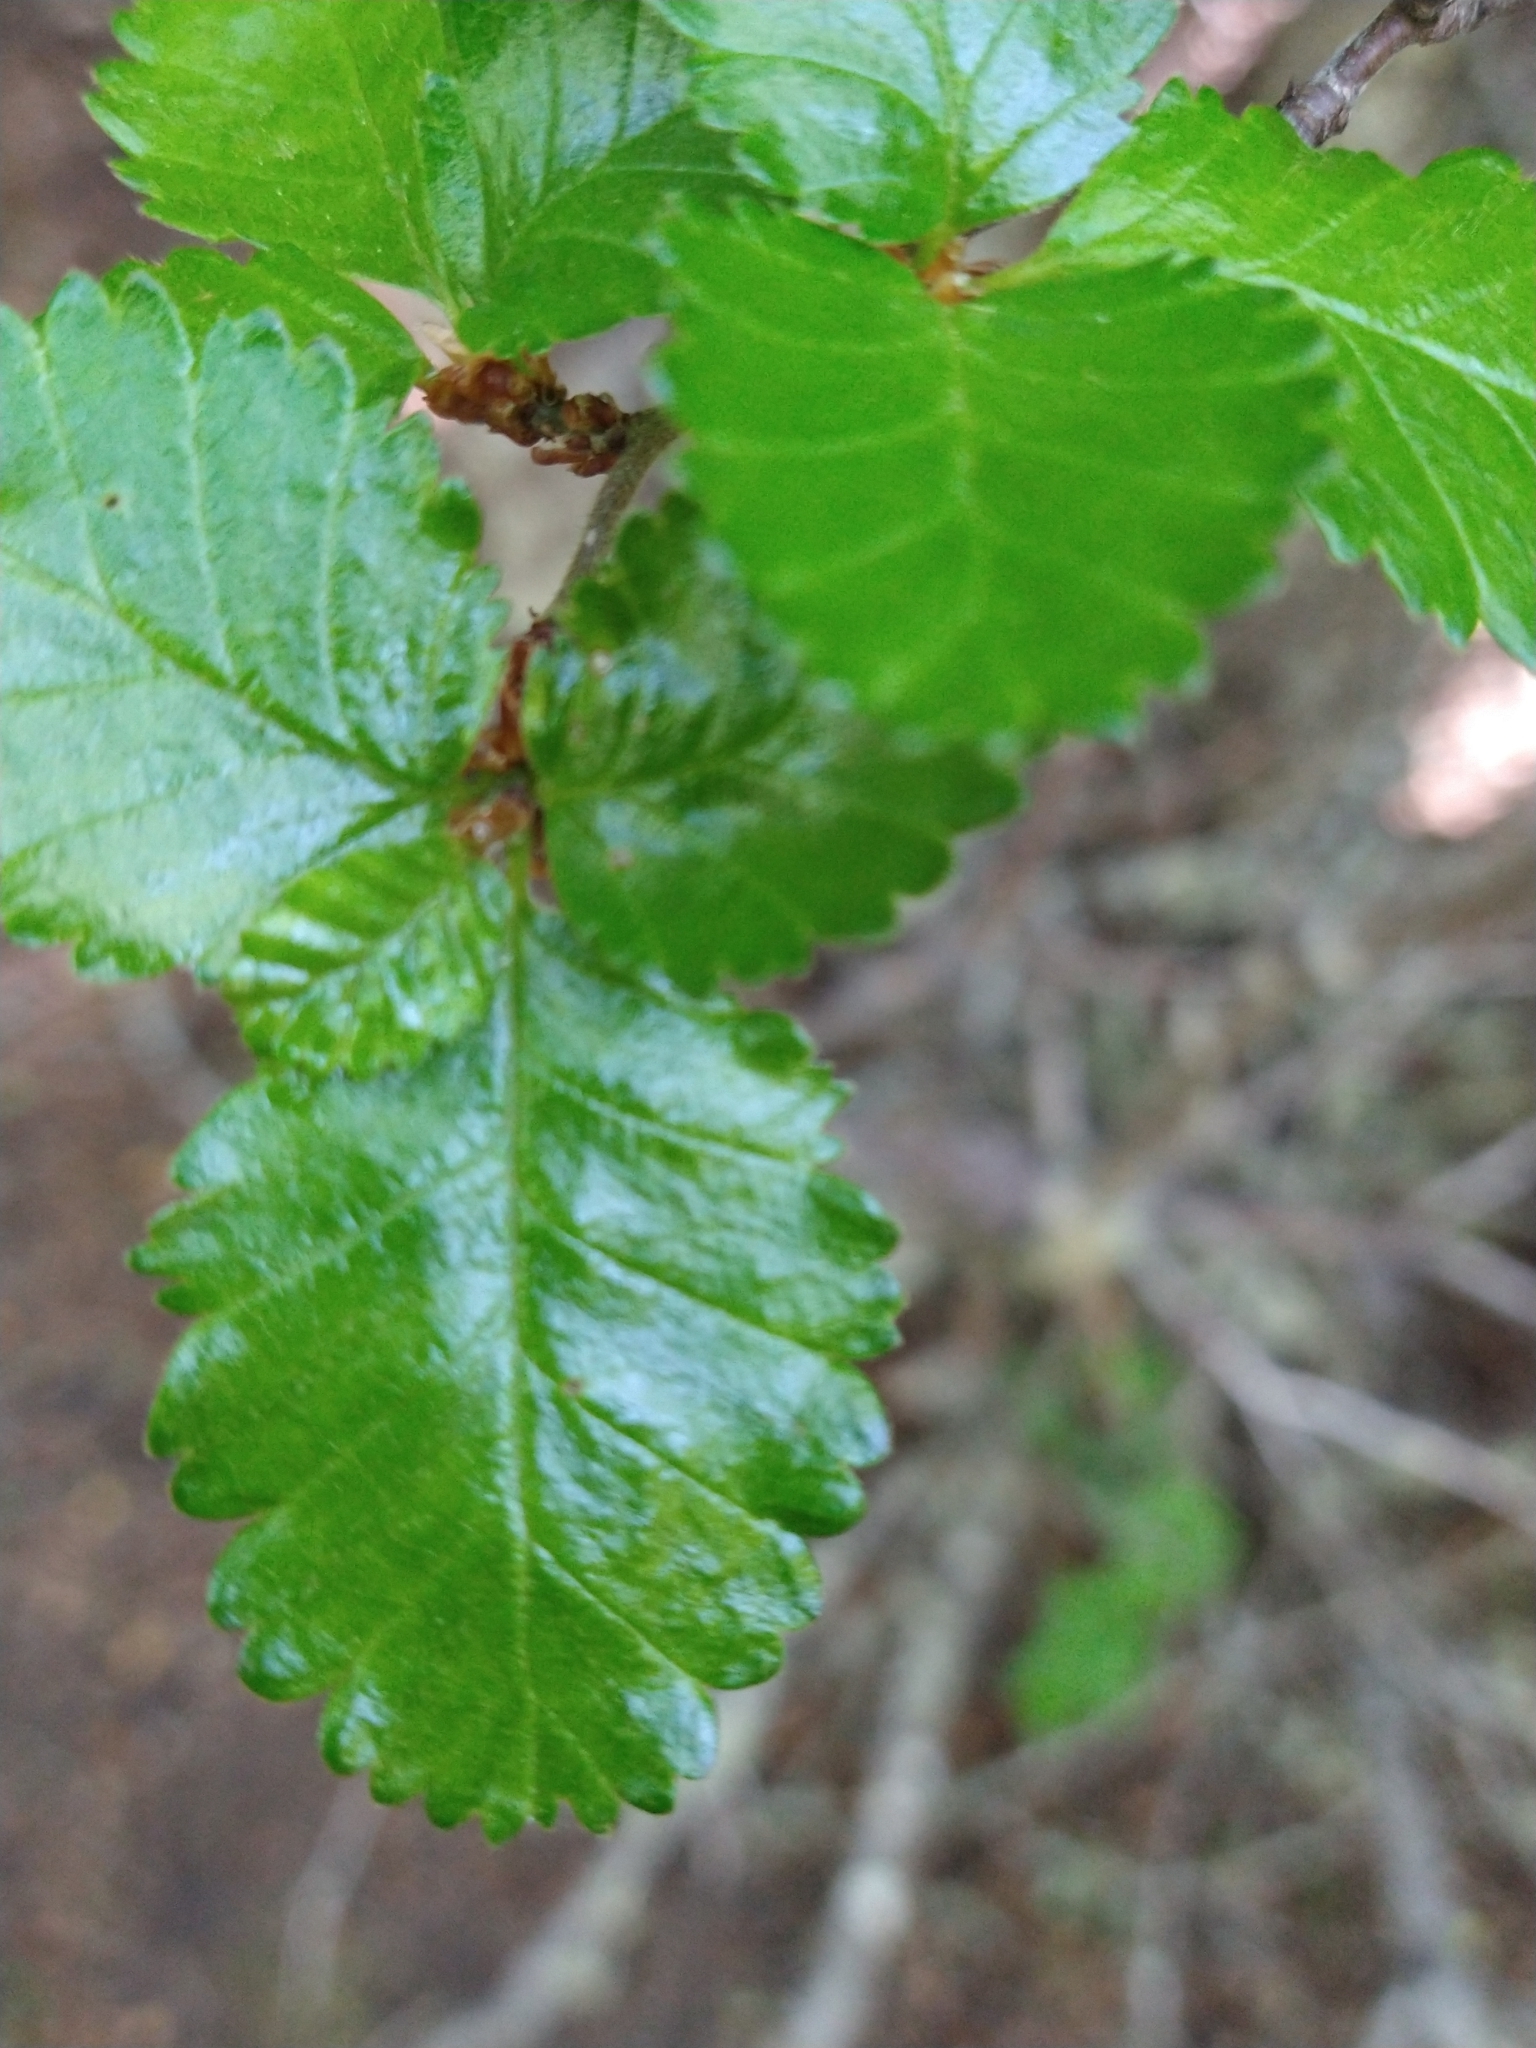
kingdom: Plantae
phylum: Tracheophyta
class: Magnoliopsida
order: Fagales
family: Nothofagaceae
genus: Nothofagus
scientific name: Nothofagus pumilio
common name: Lenga beech
